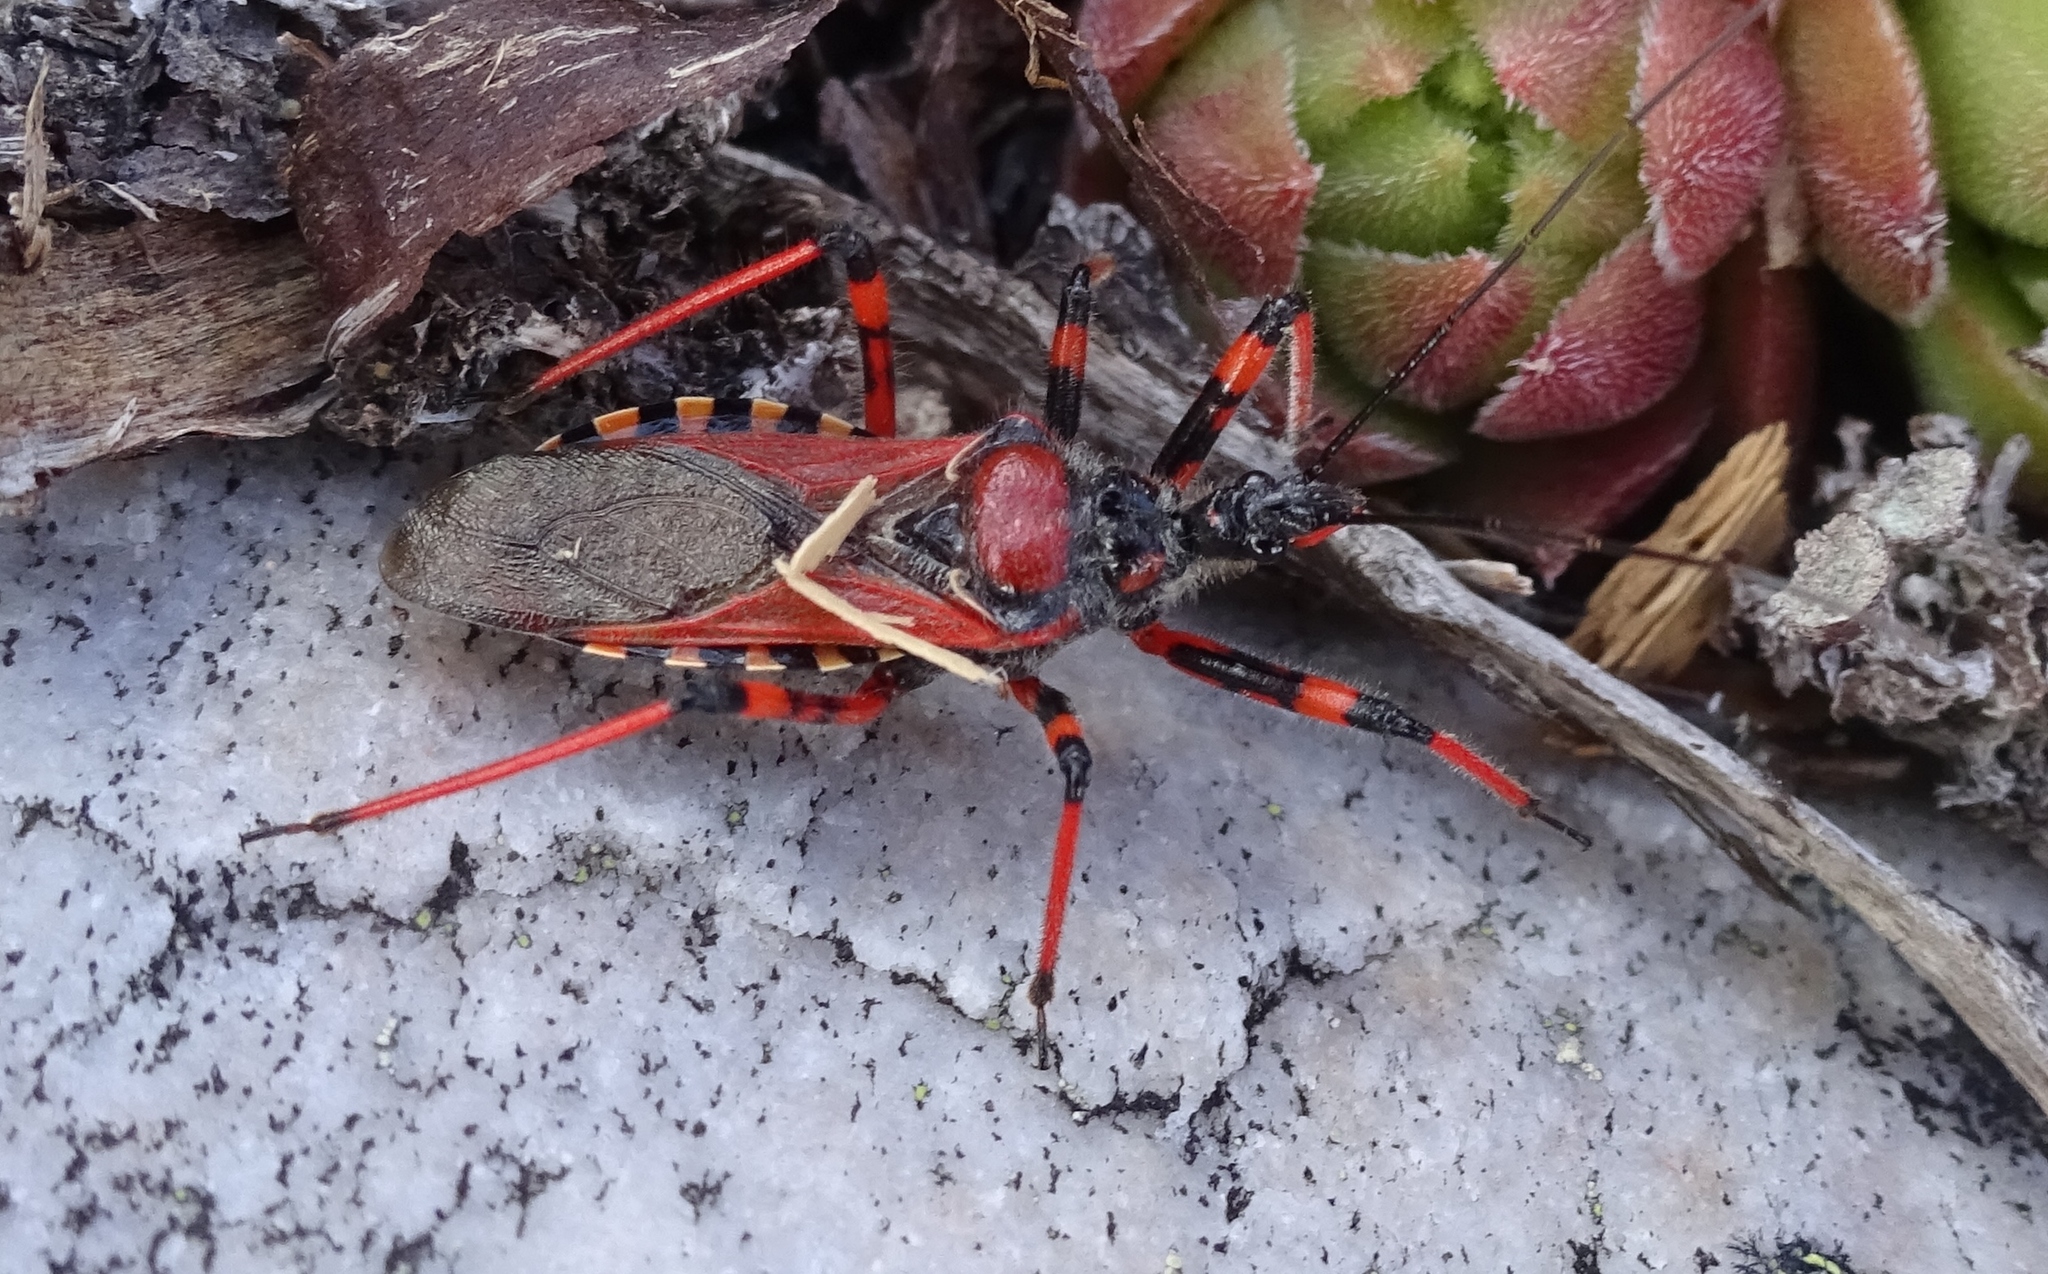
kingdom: Animalia
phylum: Arthropoda
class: Insecta
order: Hemiptera
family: Reduviidae
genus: Rhynocoris
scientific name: Rhynocoris iracundus
